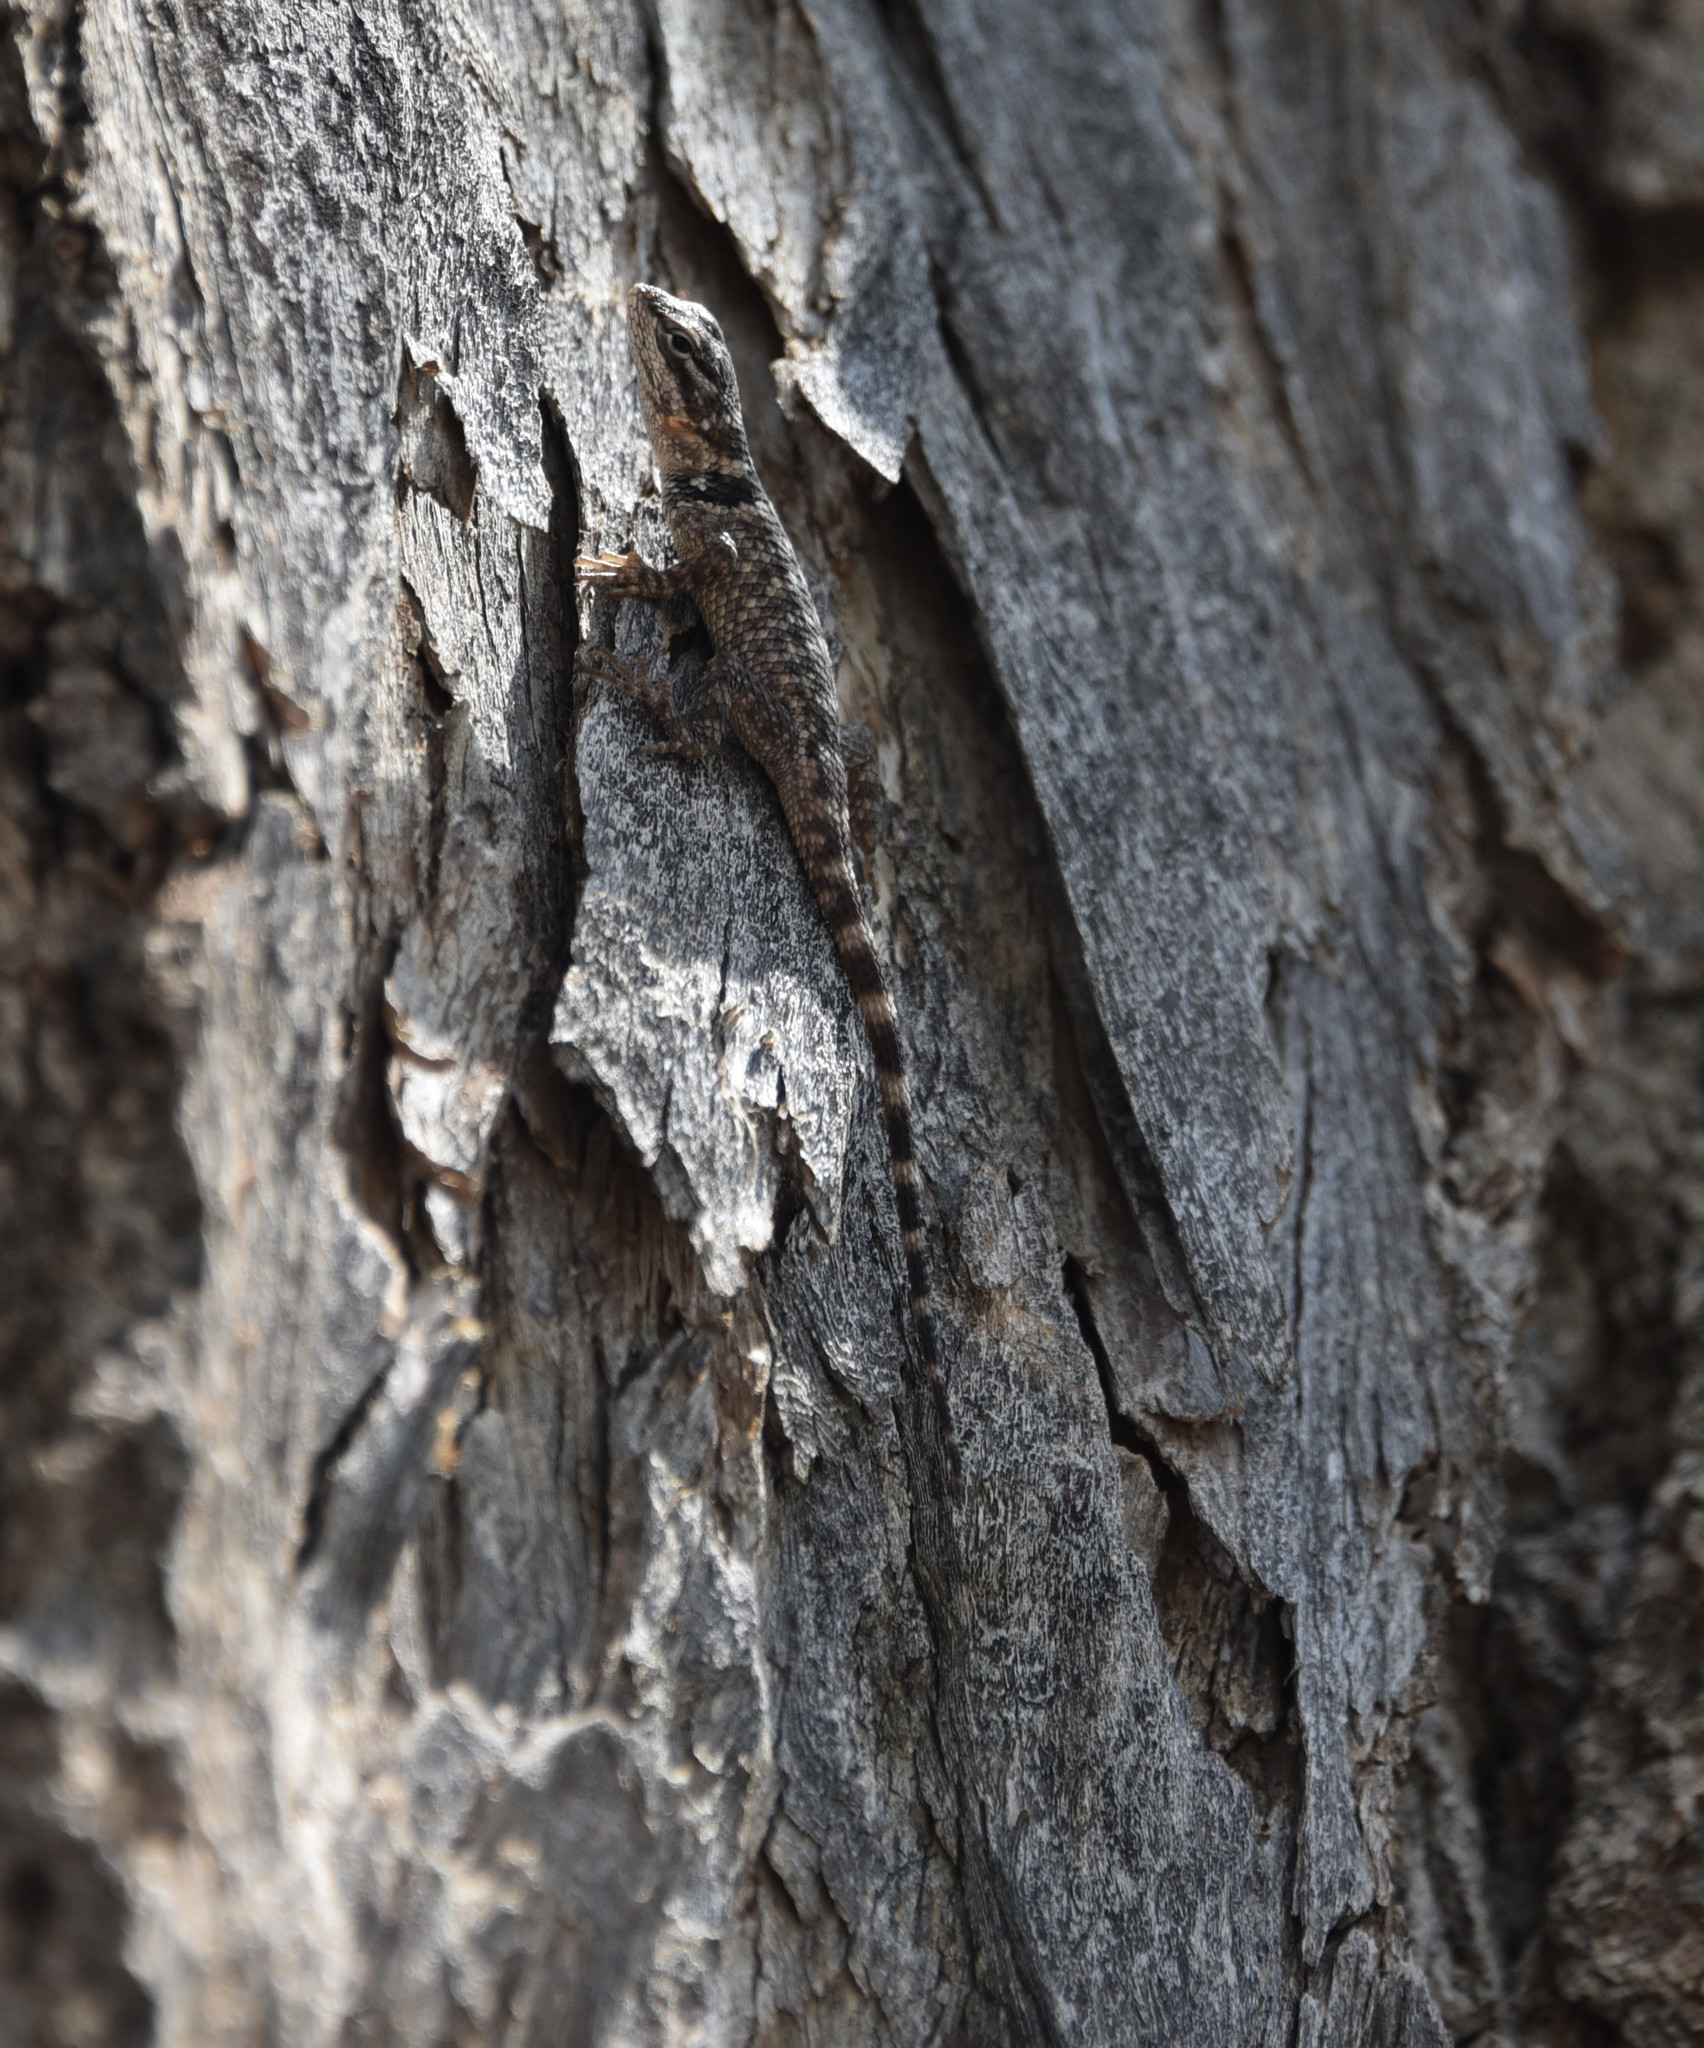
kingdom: Animalia
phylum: Chordata
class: Squamata
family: Phrynosomatidae
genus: Sceloporus
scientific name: Sceloporus poinsettii
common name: Crevice spiny lizard
